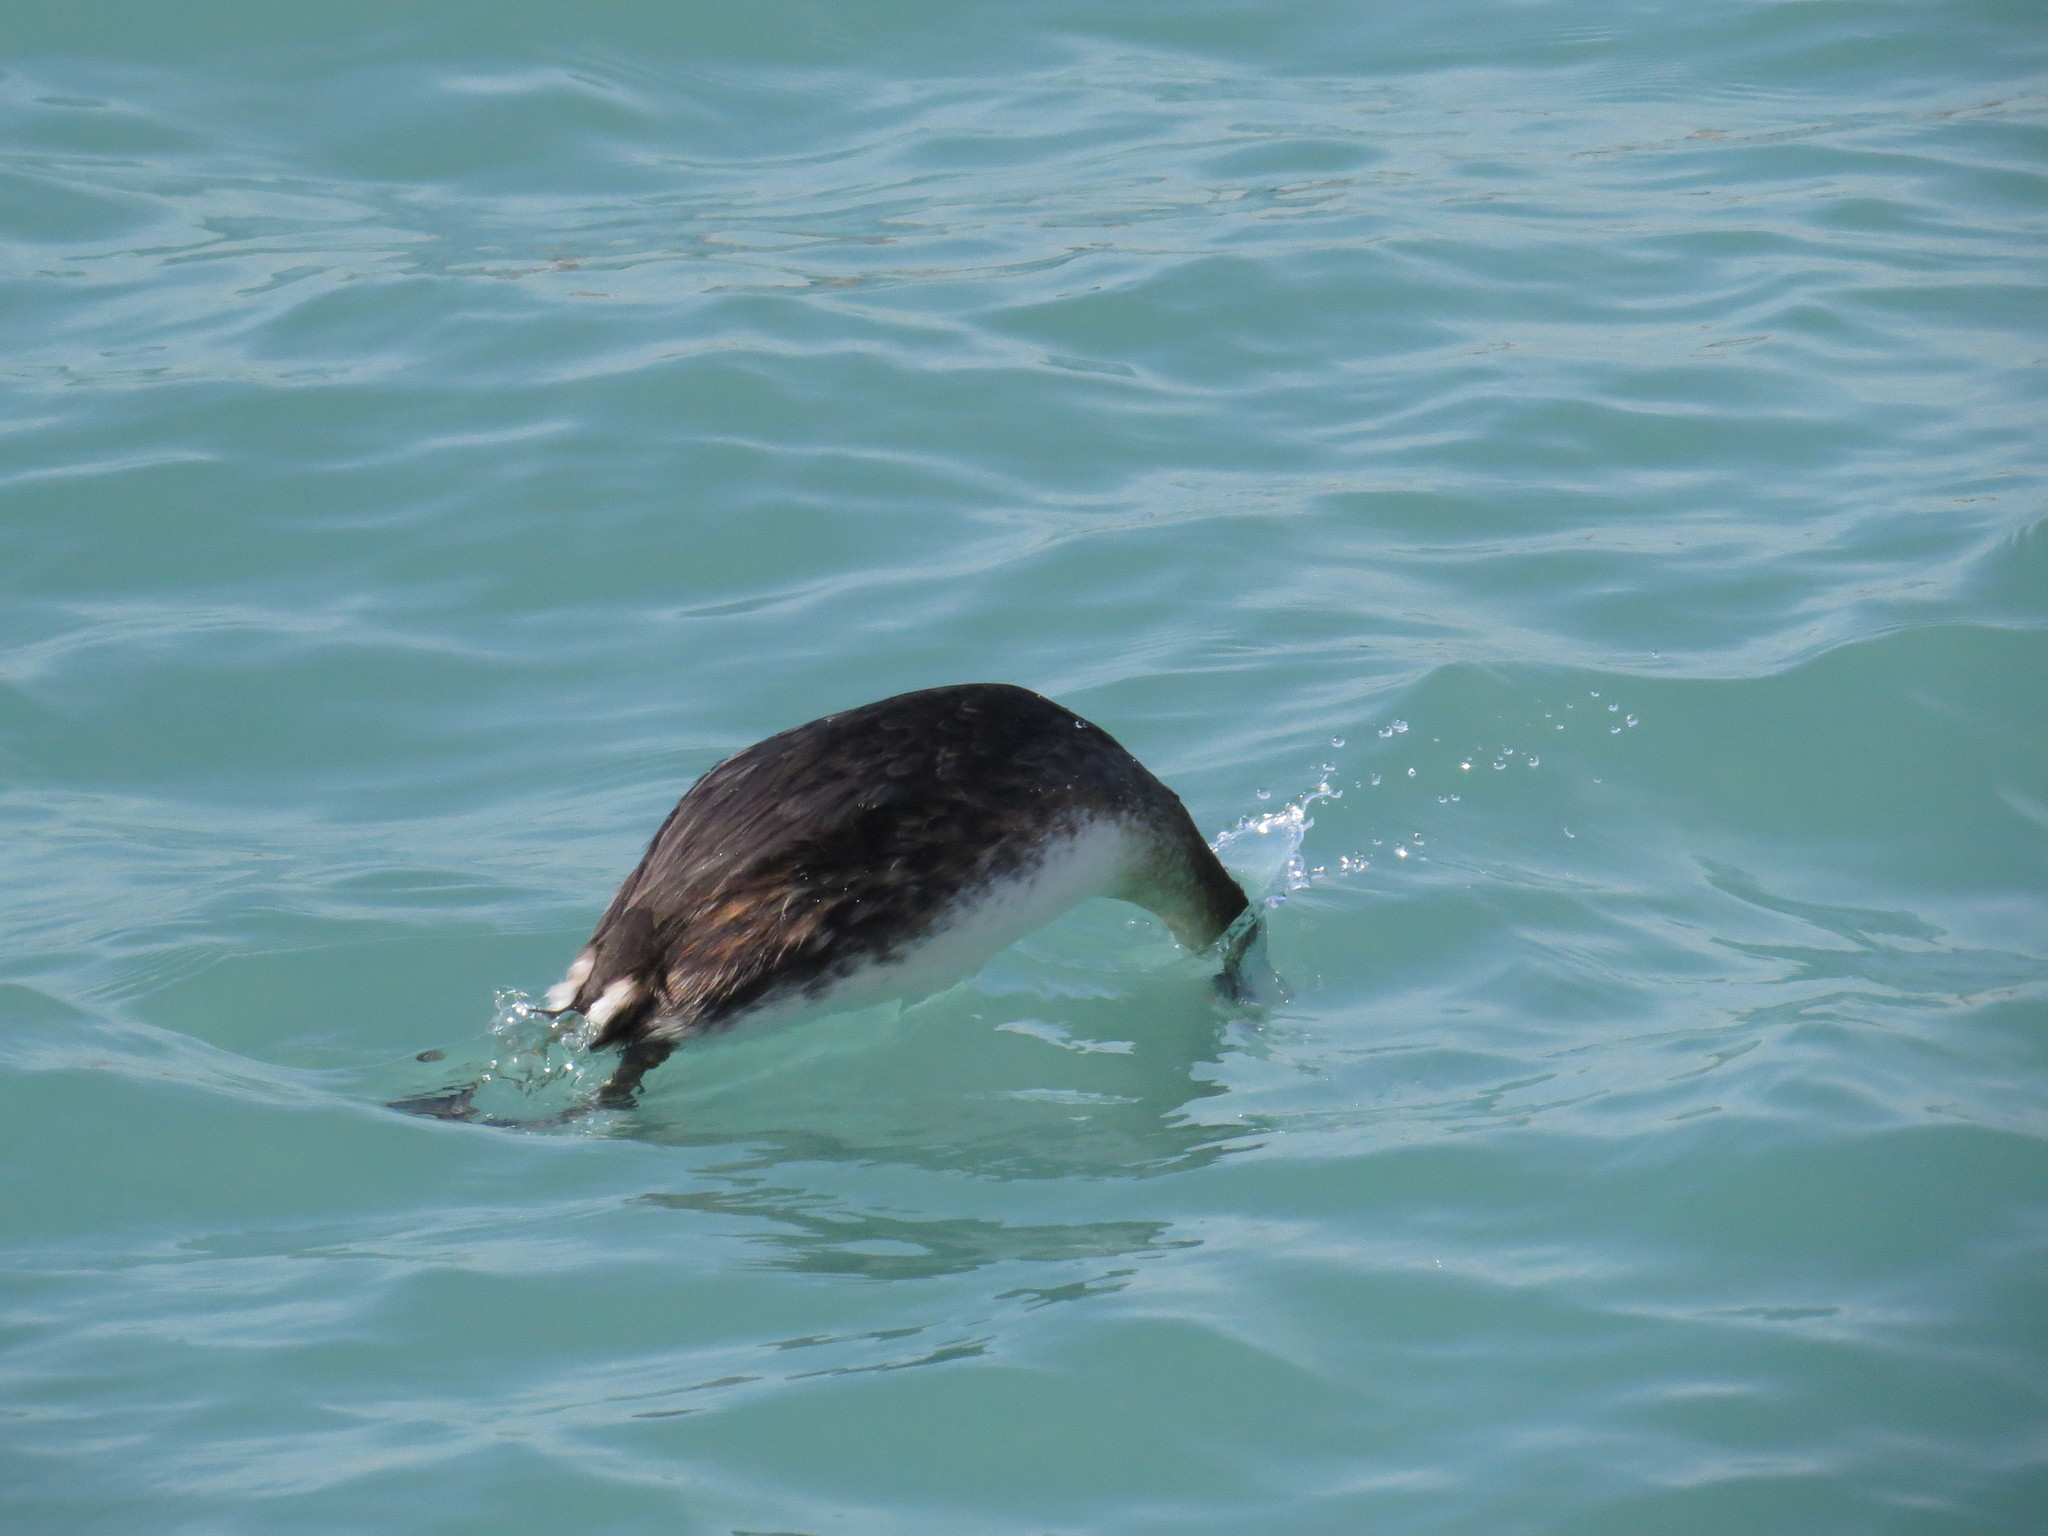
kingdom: Animalia
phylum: Chordata
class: Aves
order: Podicipediformes
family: Podicipedidae
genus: Podiceps
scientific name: Podiceps cristatus
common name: Great crested grebe
